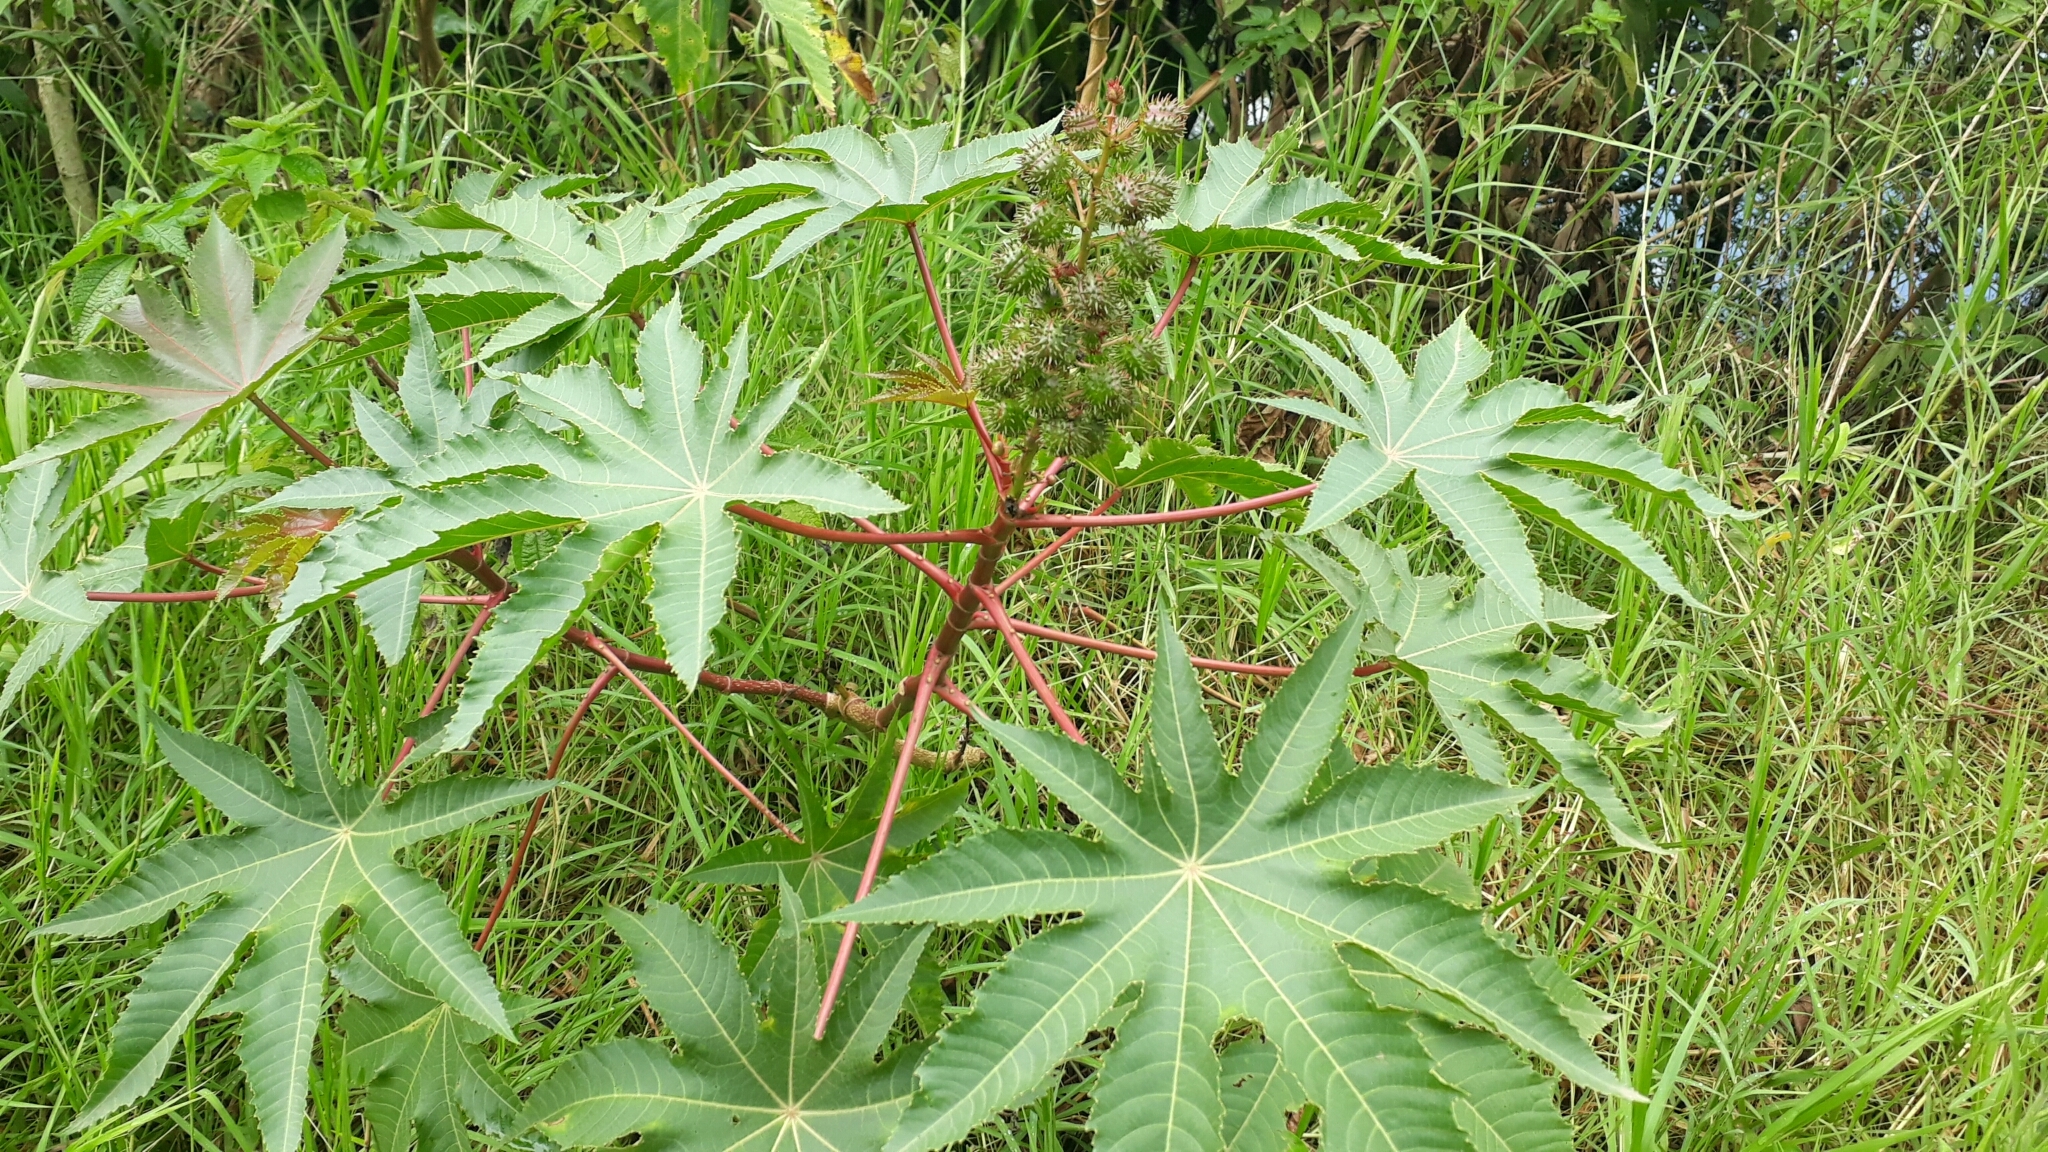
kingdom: Plantae
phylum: Tracheophyta
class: Magnoliopsida
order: Malpighiales
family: Euphorbiaceae
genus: Ricinus
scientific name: Ricinus communis
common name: Castor-oil-plant
